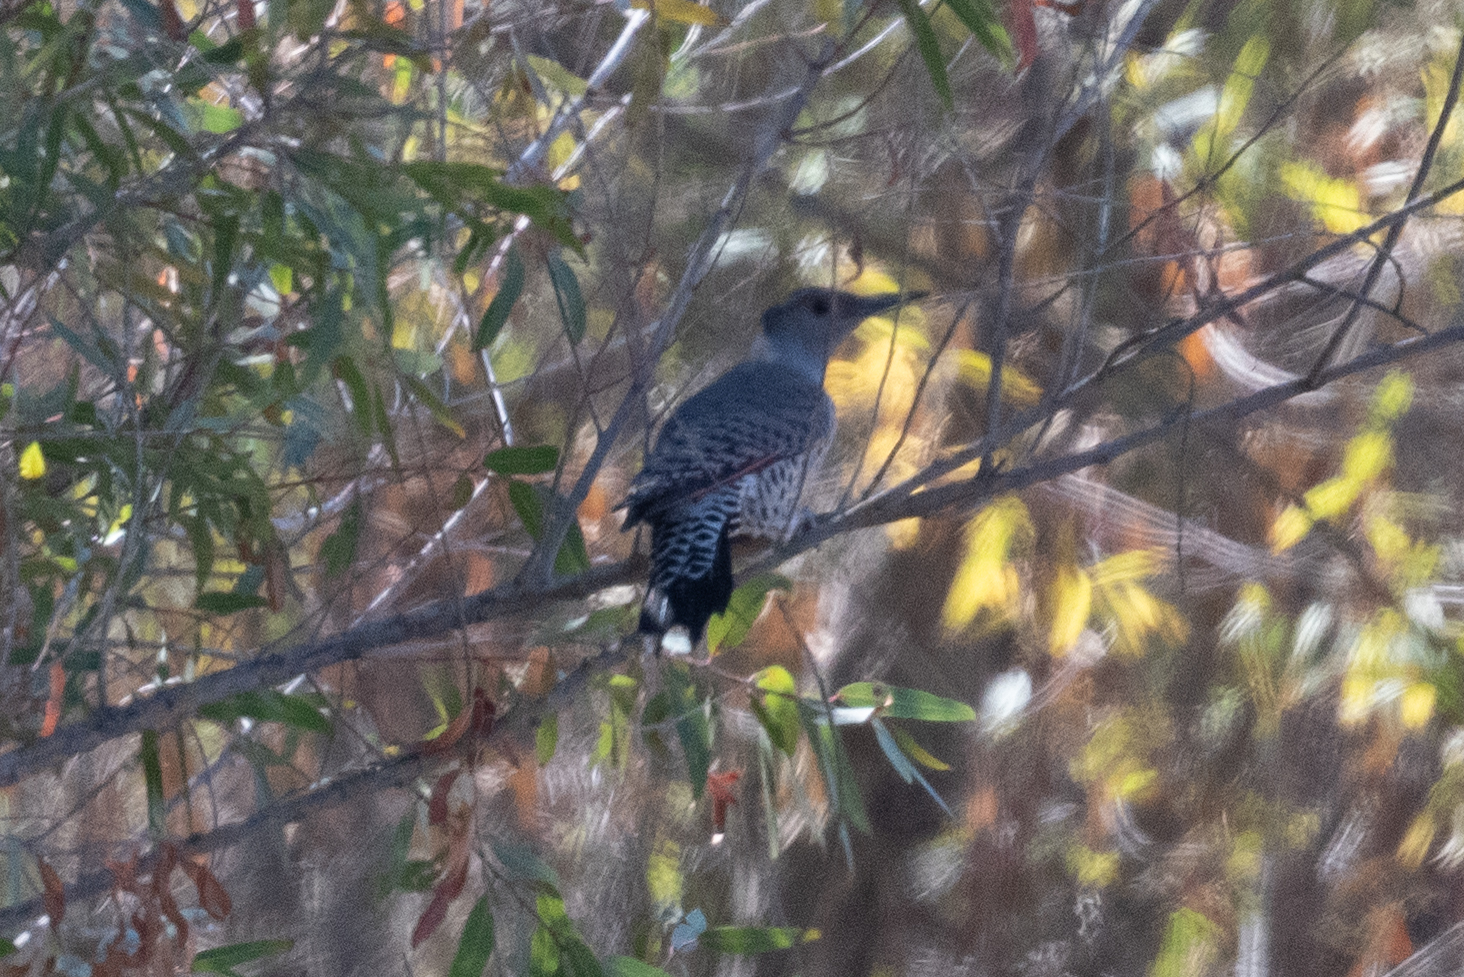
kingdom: Animalia
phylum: Chordata
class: Aves
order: Piciformes
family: Picidae
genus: Colaptes
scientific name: Colaptes auratus
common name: Northern flicker
